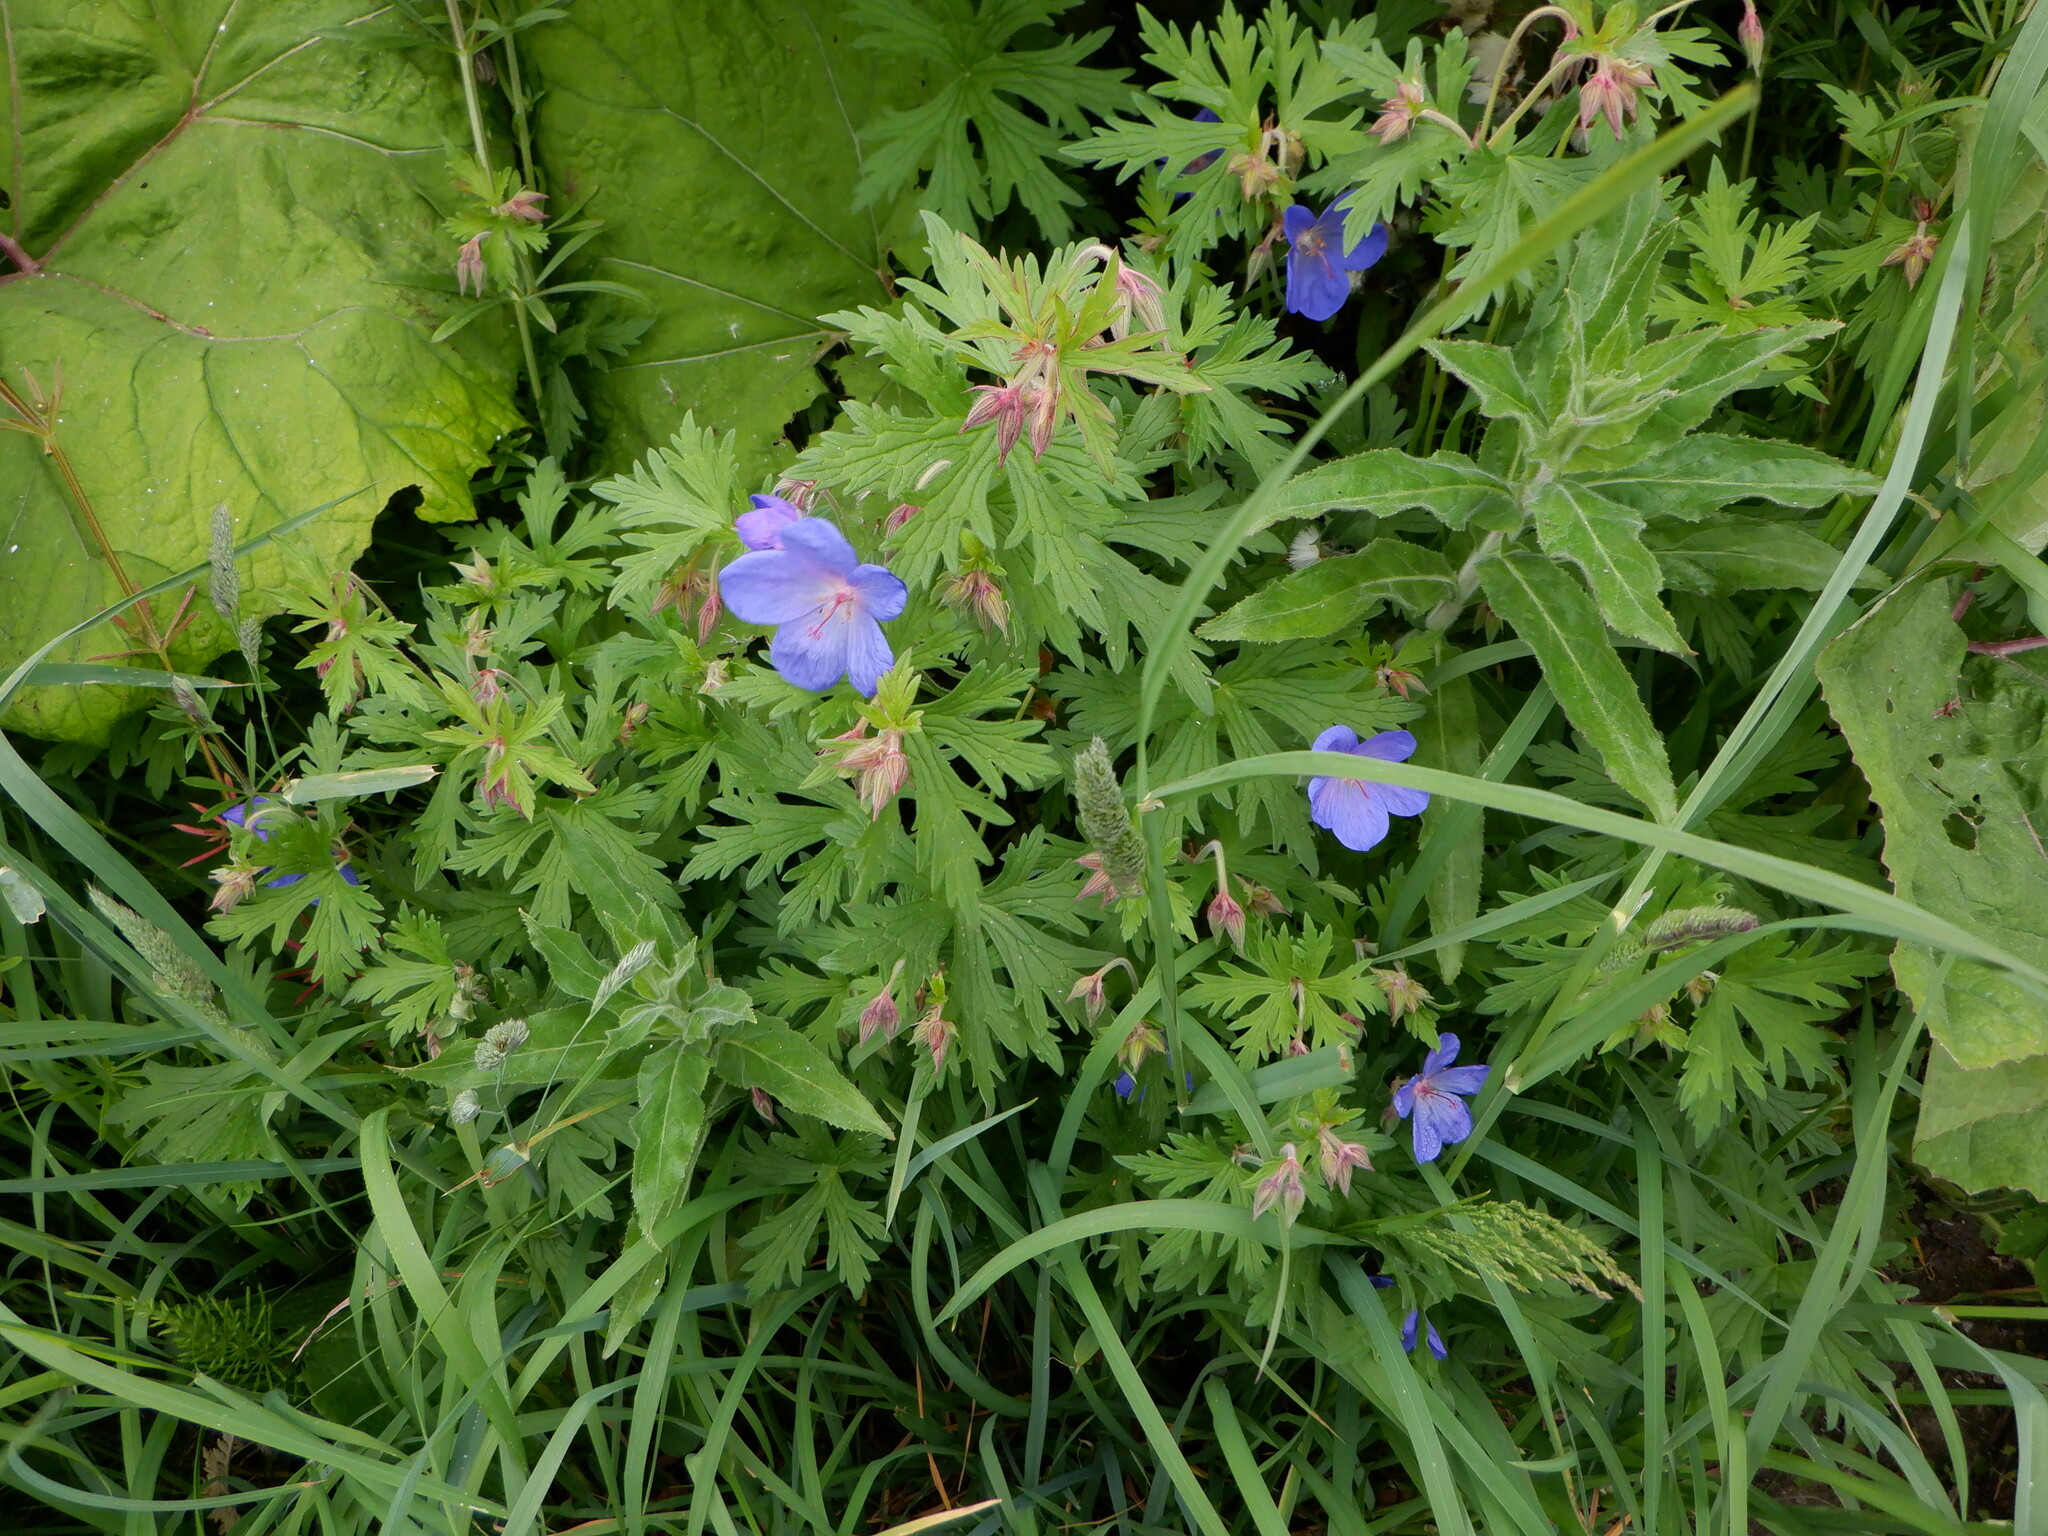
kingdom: Plantae
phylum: Tracheophyta
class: Magnoliopsida
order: Geraniales
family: Geraniaceae
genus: Geranium
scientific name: Geranium pratense
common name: Meadow crane's-bill
